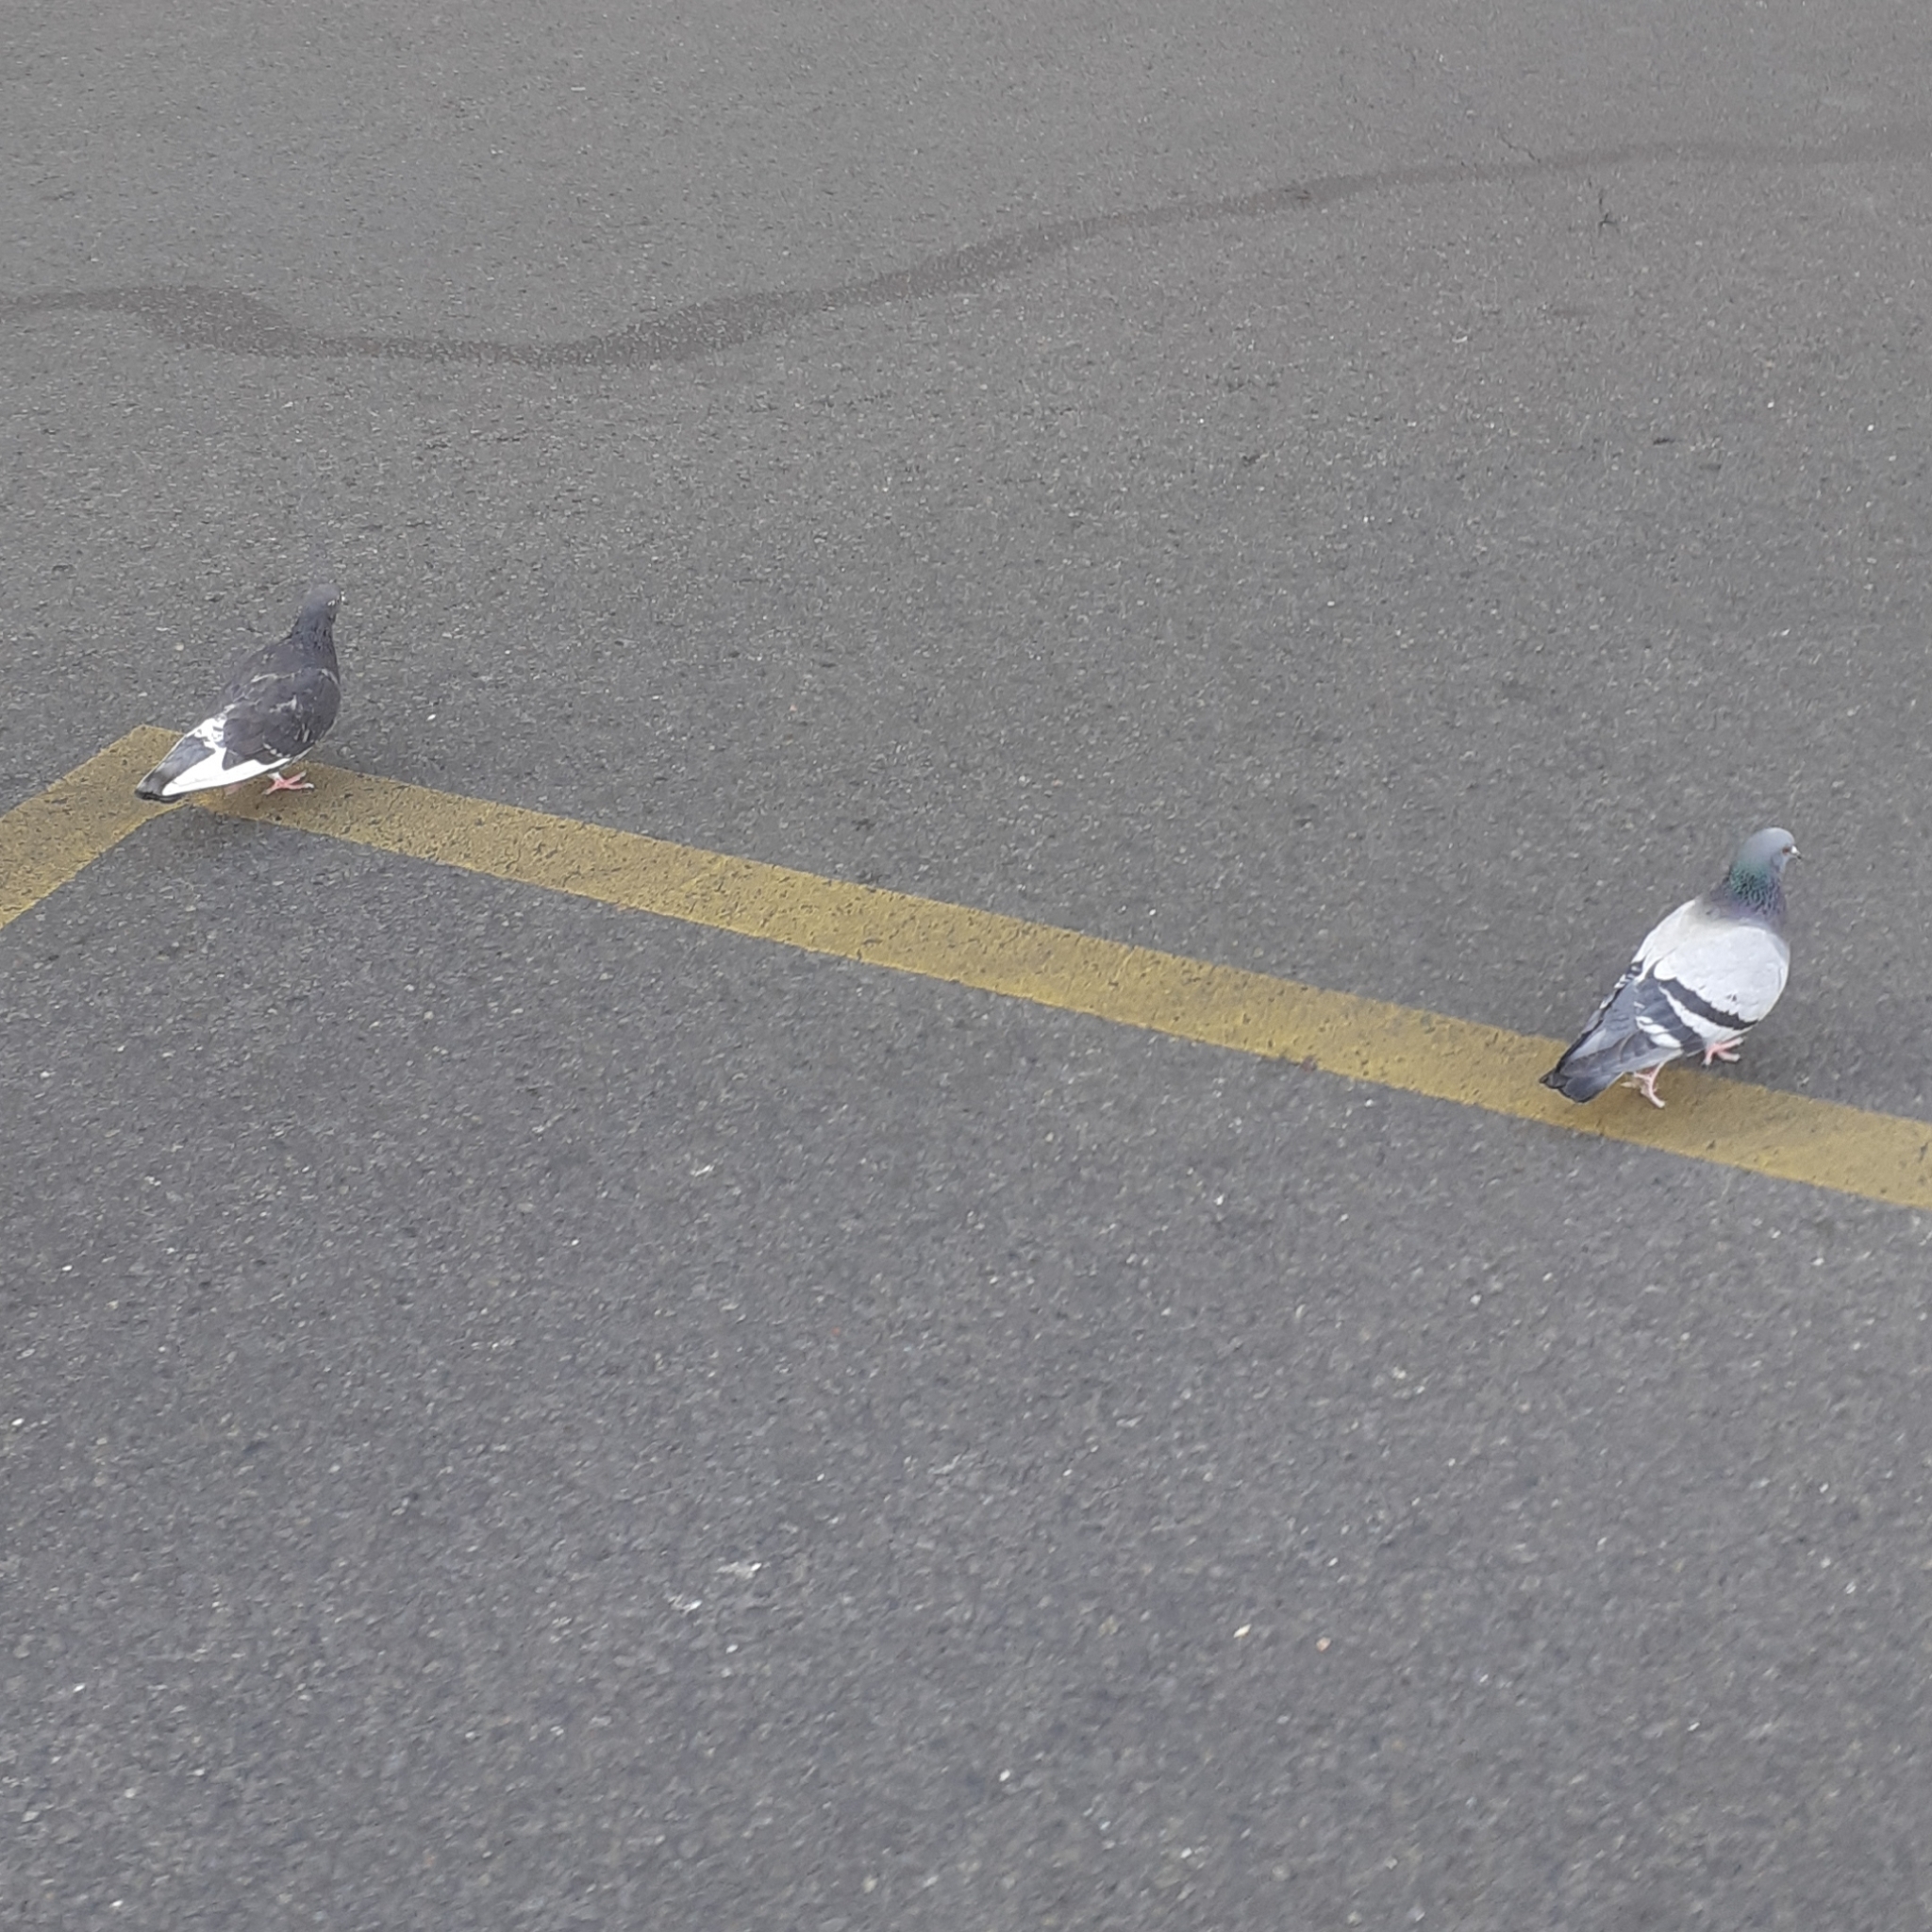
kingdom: Animalia
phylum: Chordata
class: Aves
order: Columbiformes
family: Columbidae
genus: Columba
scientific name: Columba livia
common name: Rock pigeon
